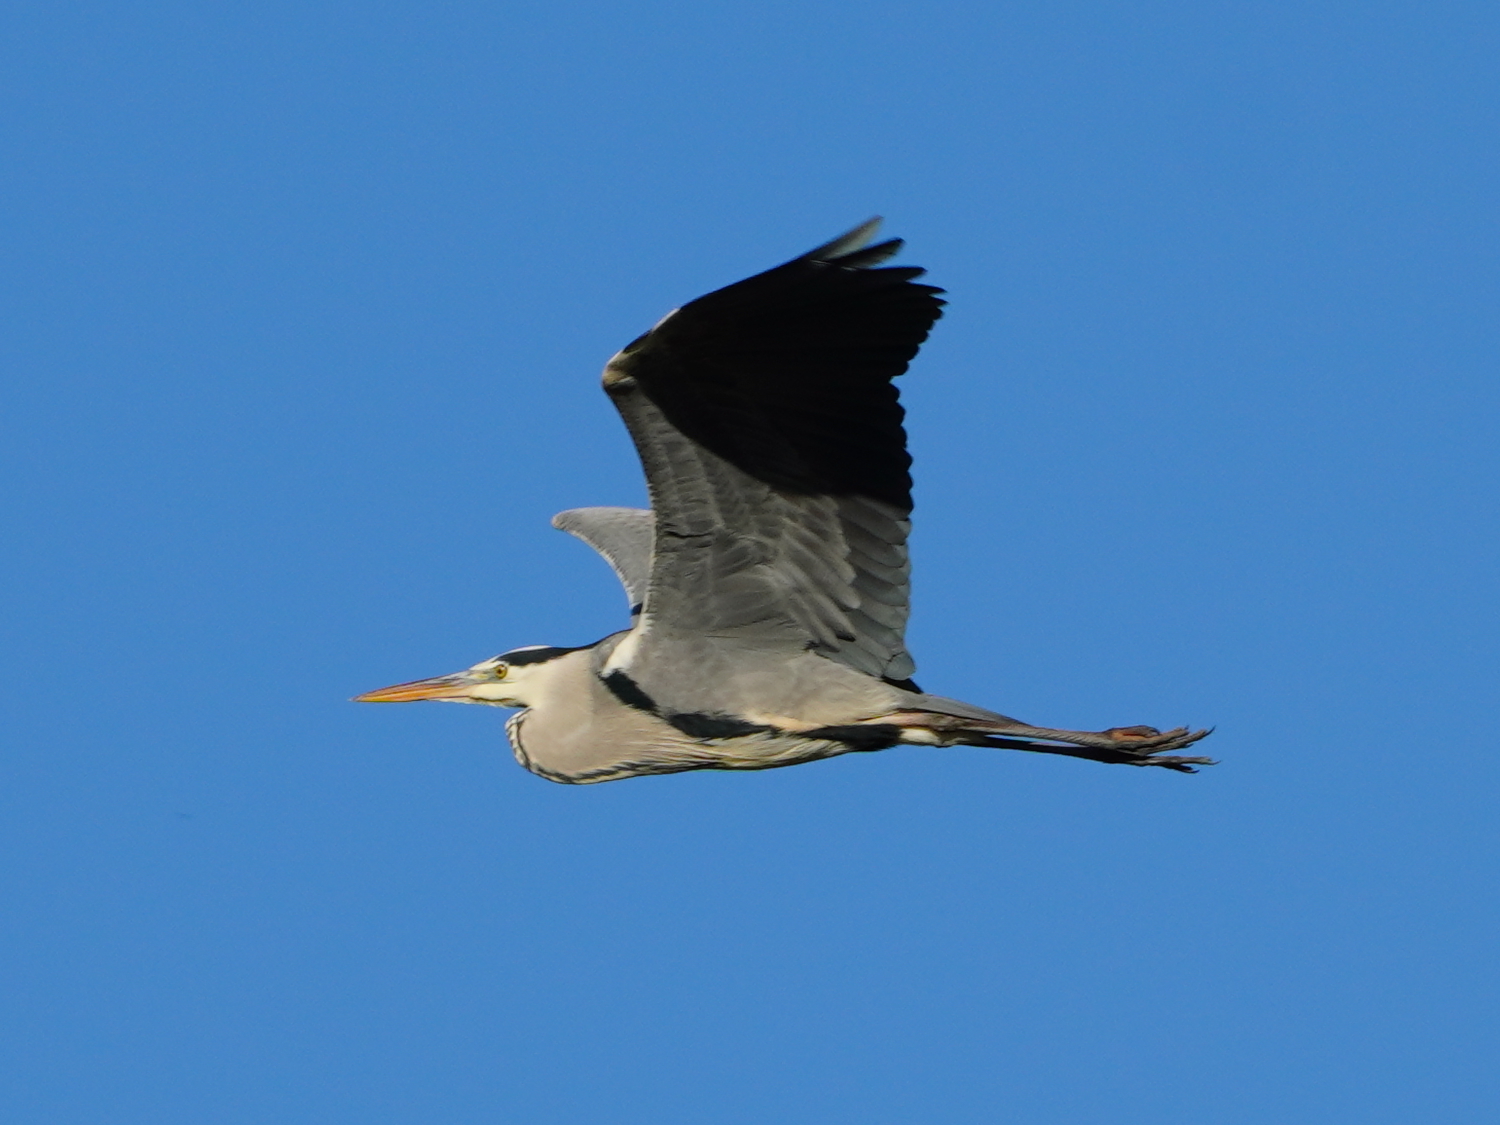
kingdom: Animalia
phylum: Chordata
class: Aves
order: Pelecaniformes
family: Ardeidae
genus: Ardea
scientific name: Ardea cinerea
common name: Grey heron
